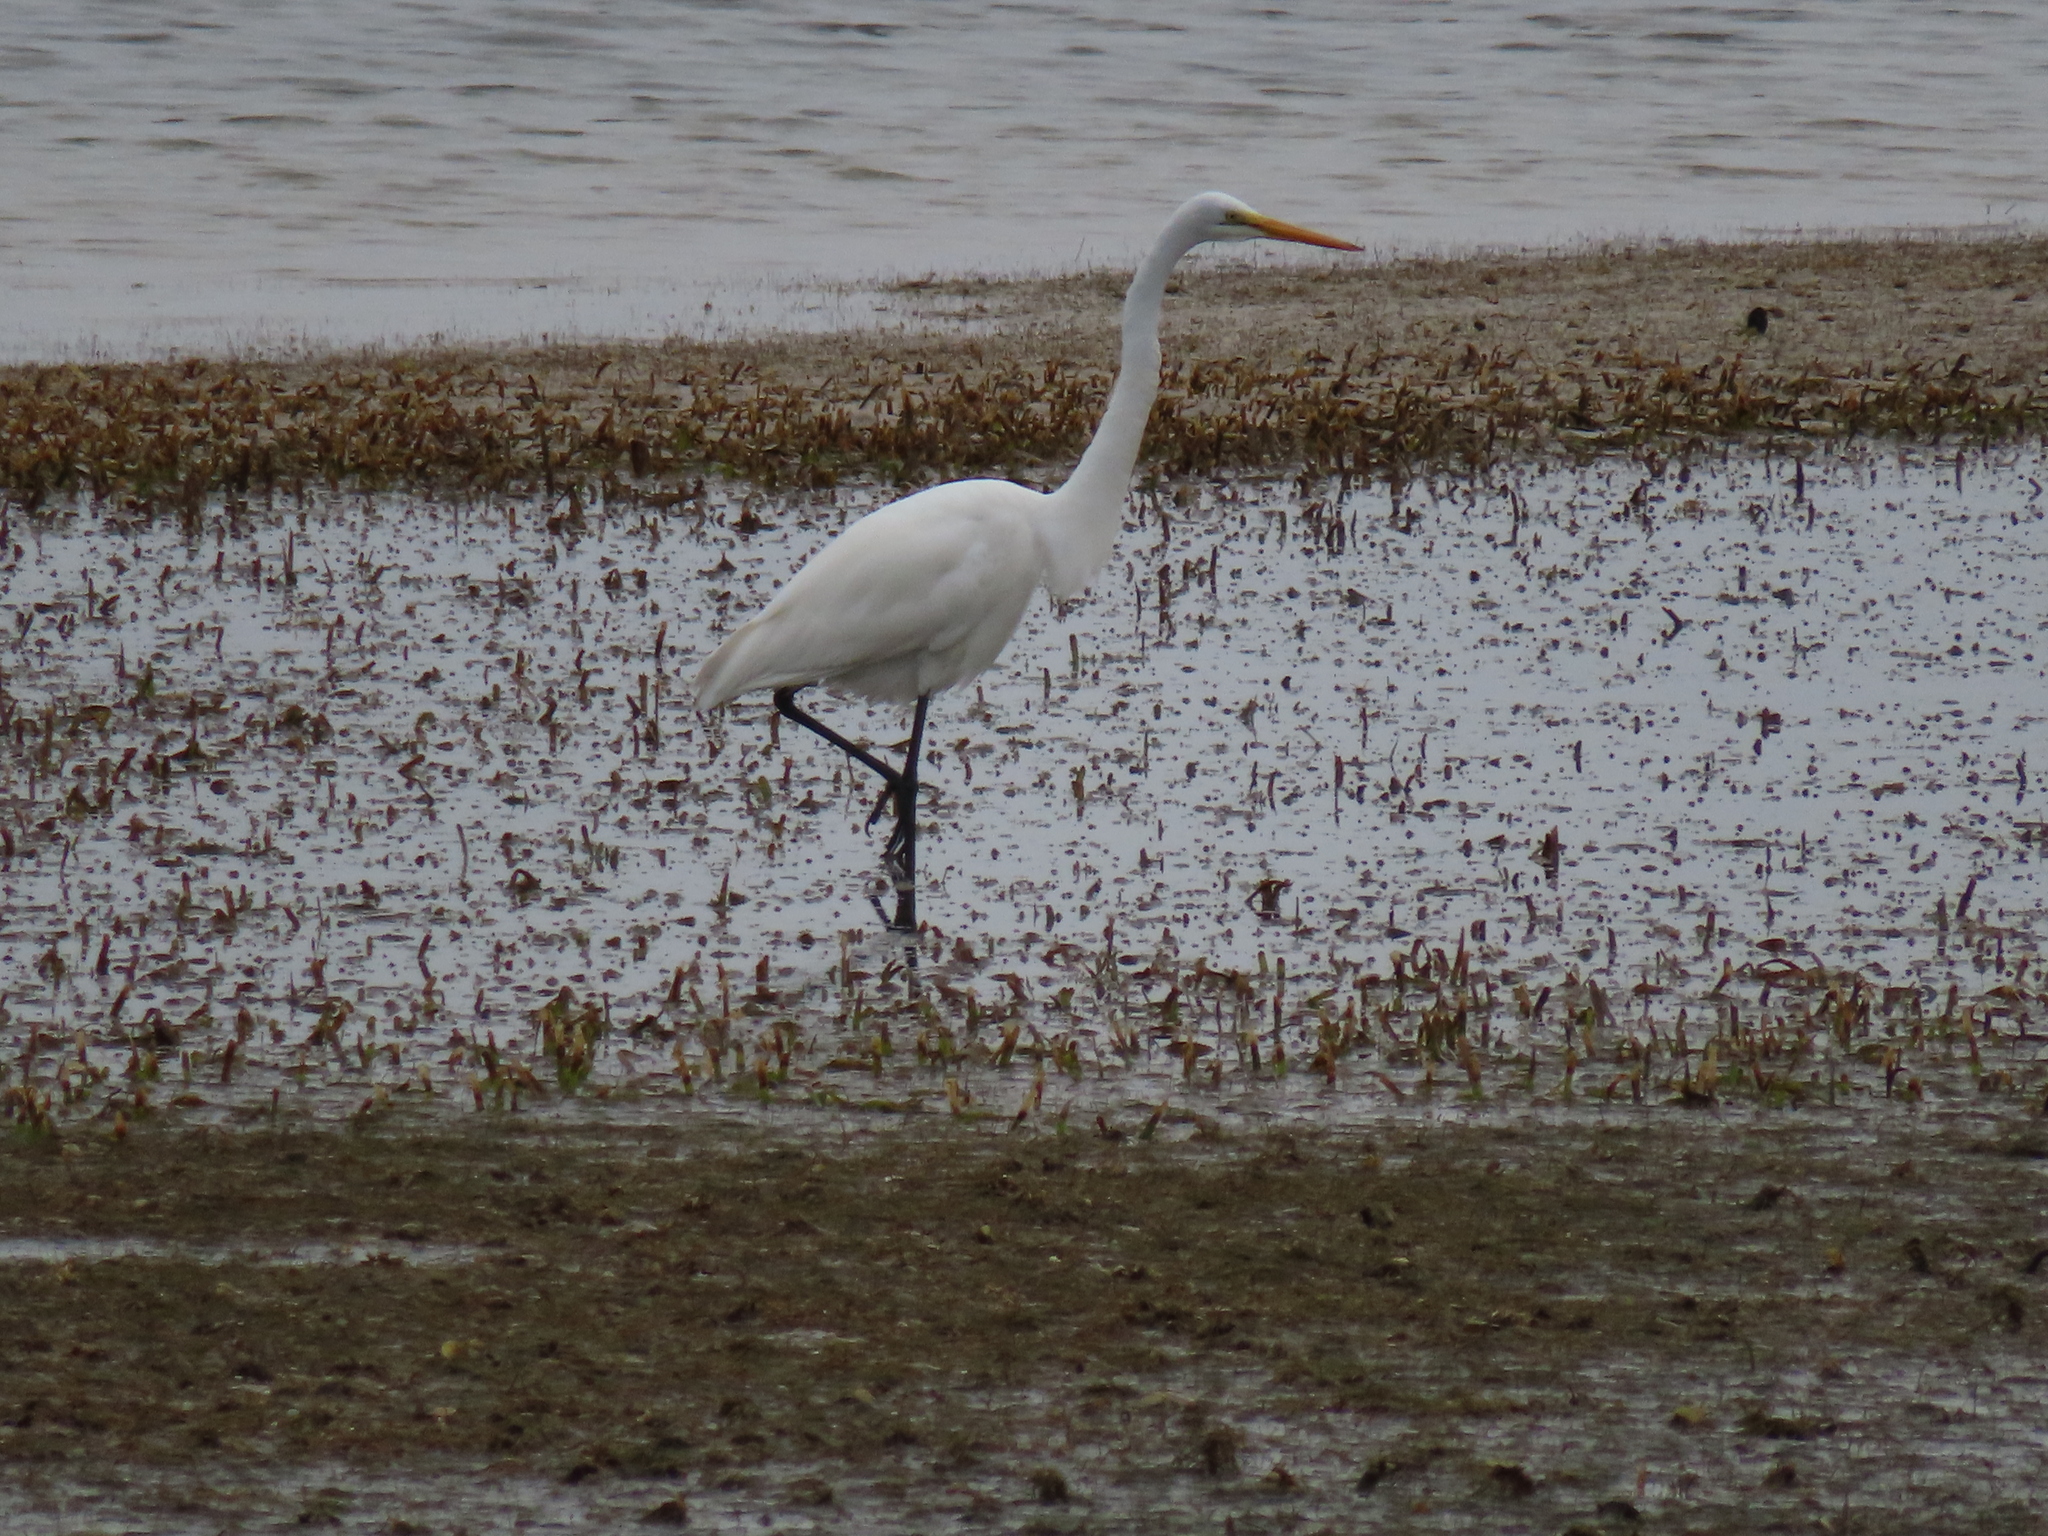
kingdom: Animalia
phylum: Chordata
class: Aves
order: Pelecaniformes
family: Ardeidae
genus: Ardea
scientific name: Ardea alba
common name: Great egret
